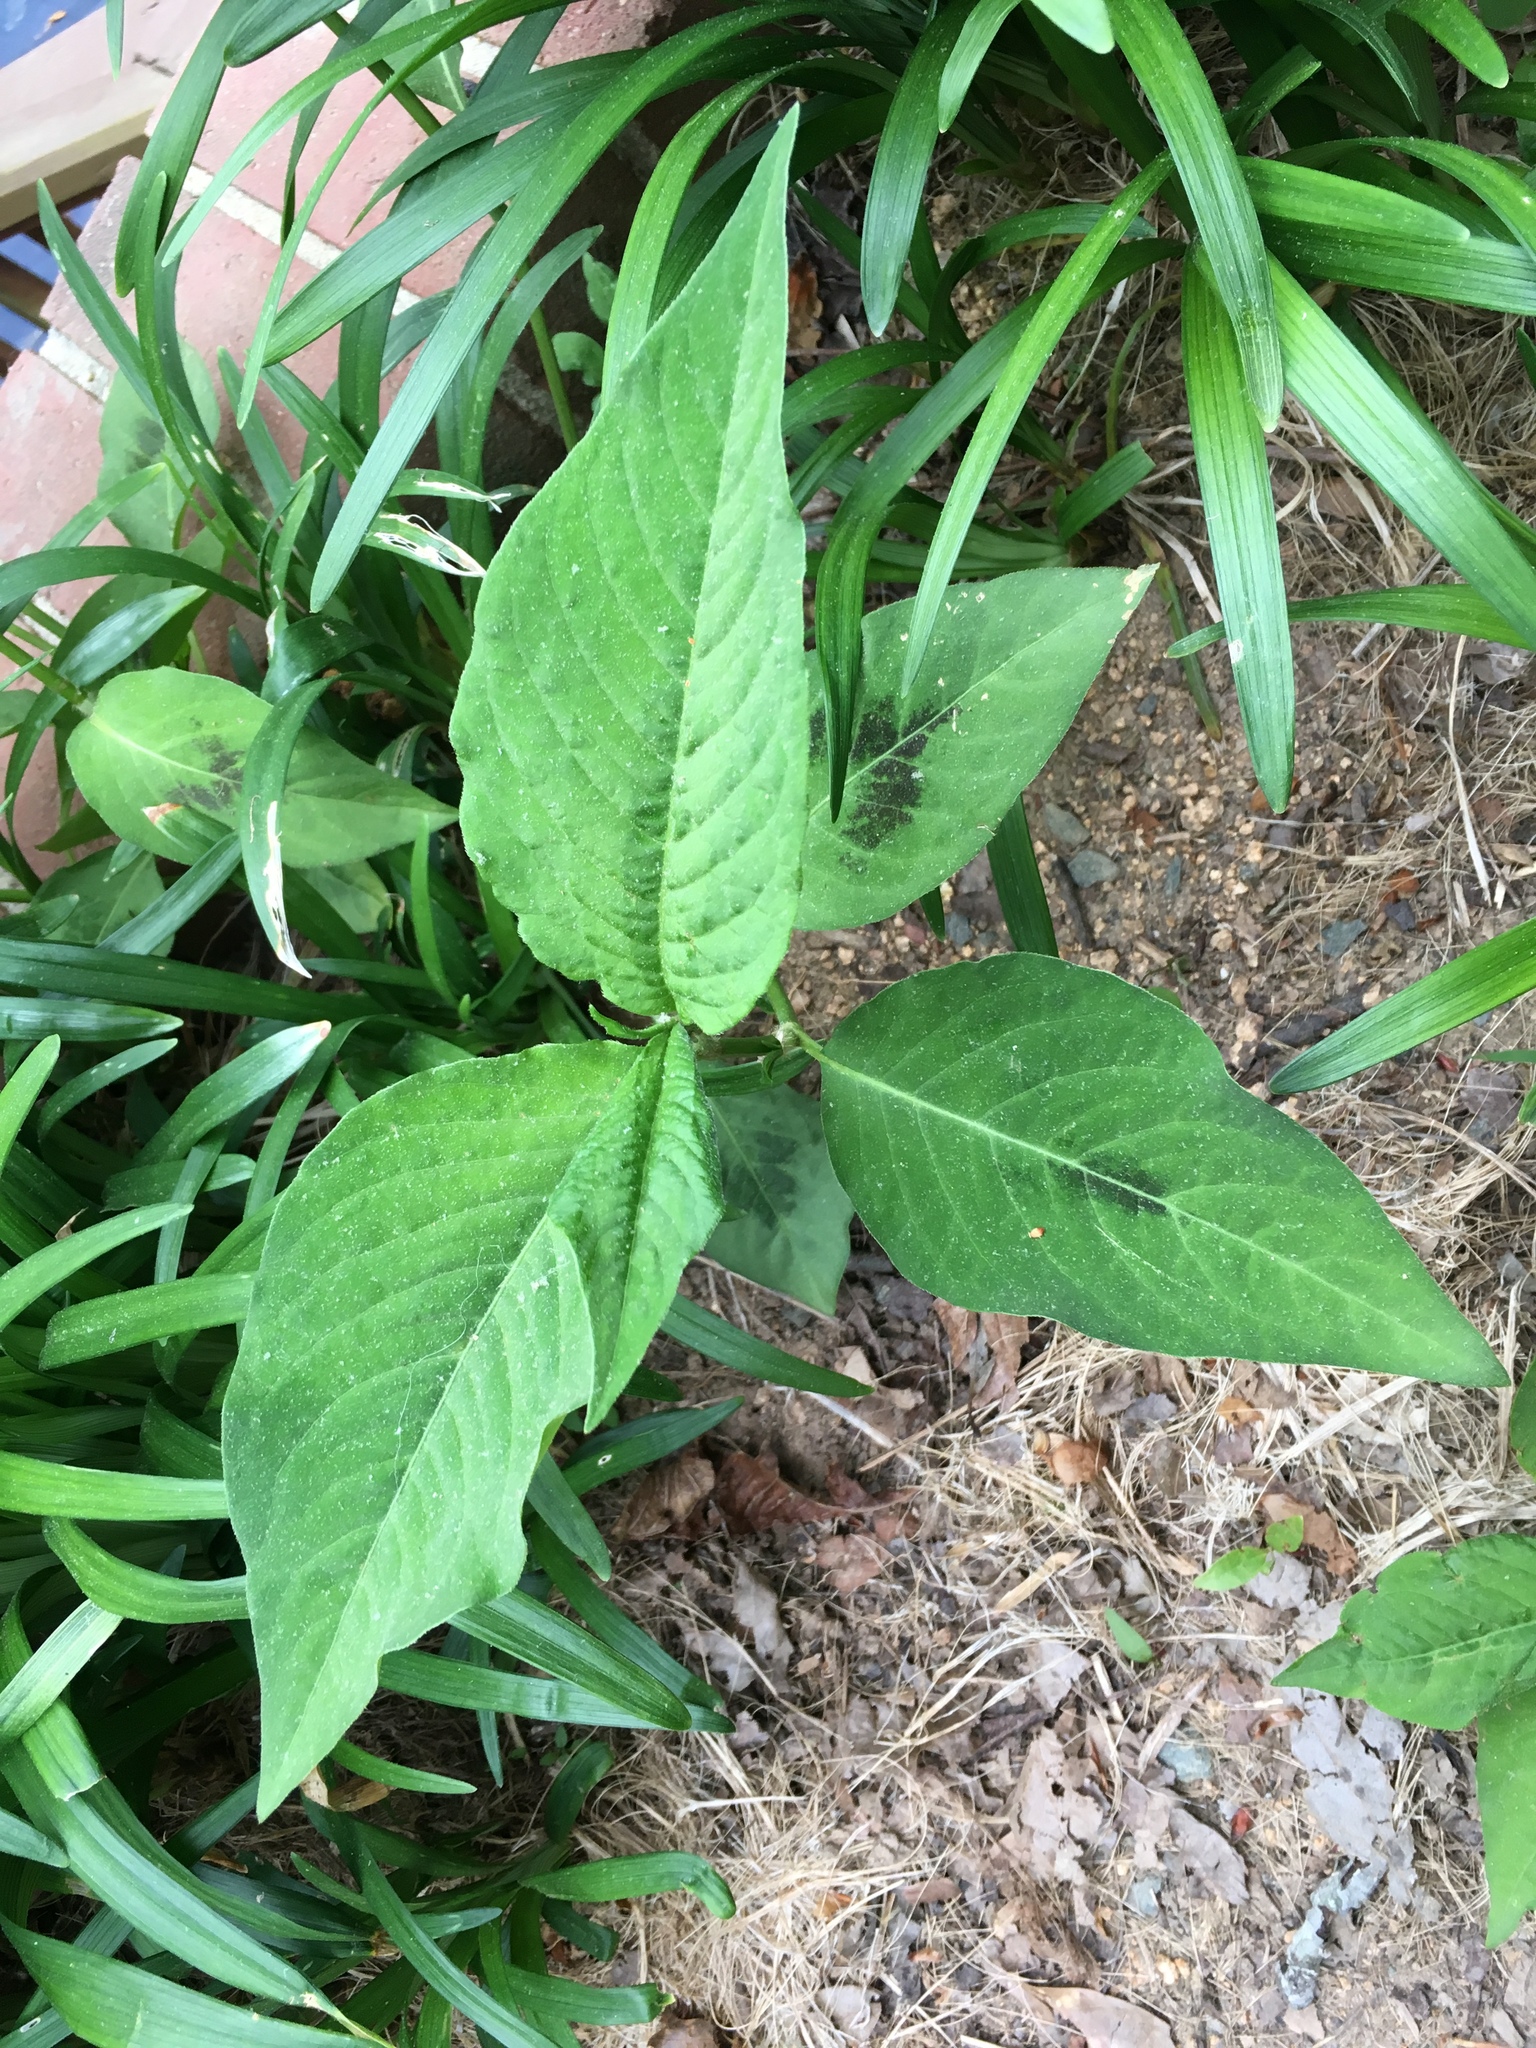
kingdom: Plantae
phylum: Tracheophyta
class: Magnoliopsida
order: Caryophyllales
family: Polygonaceae
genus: Persicaria
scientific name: Persicaria virginiana
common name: Jumpseed
